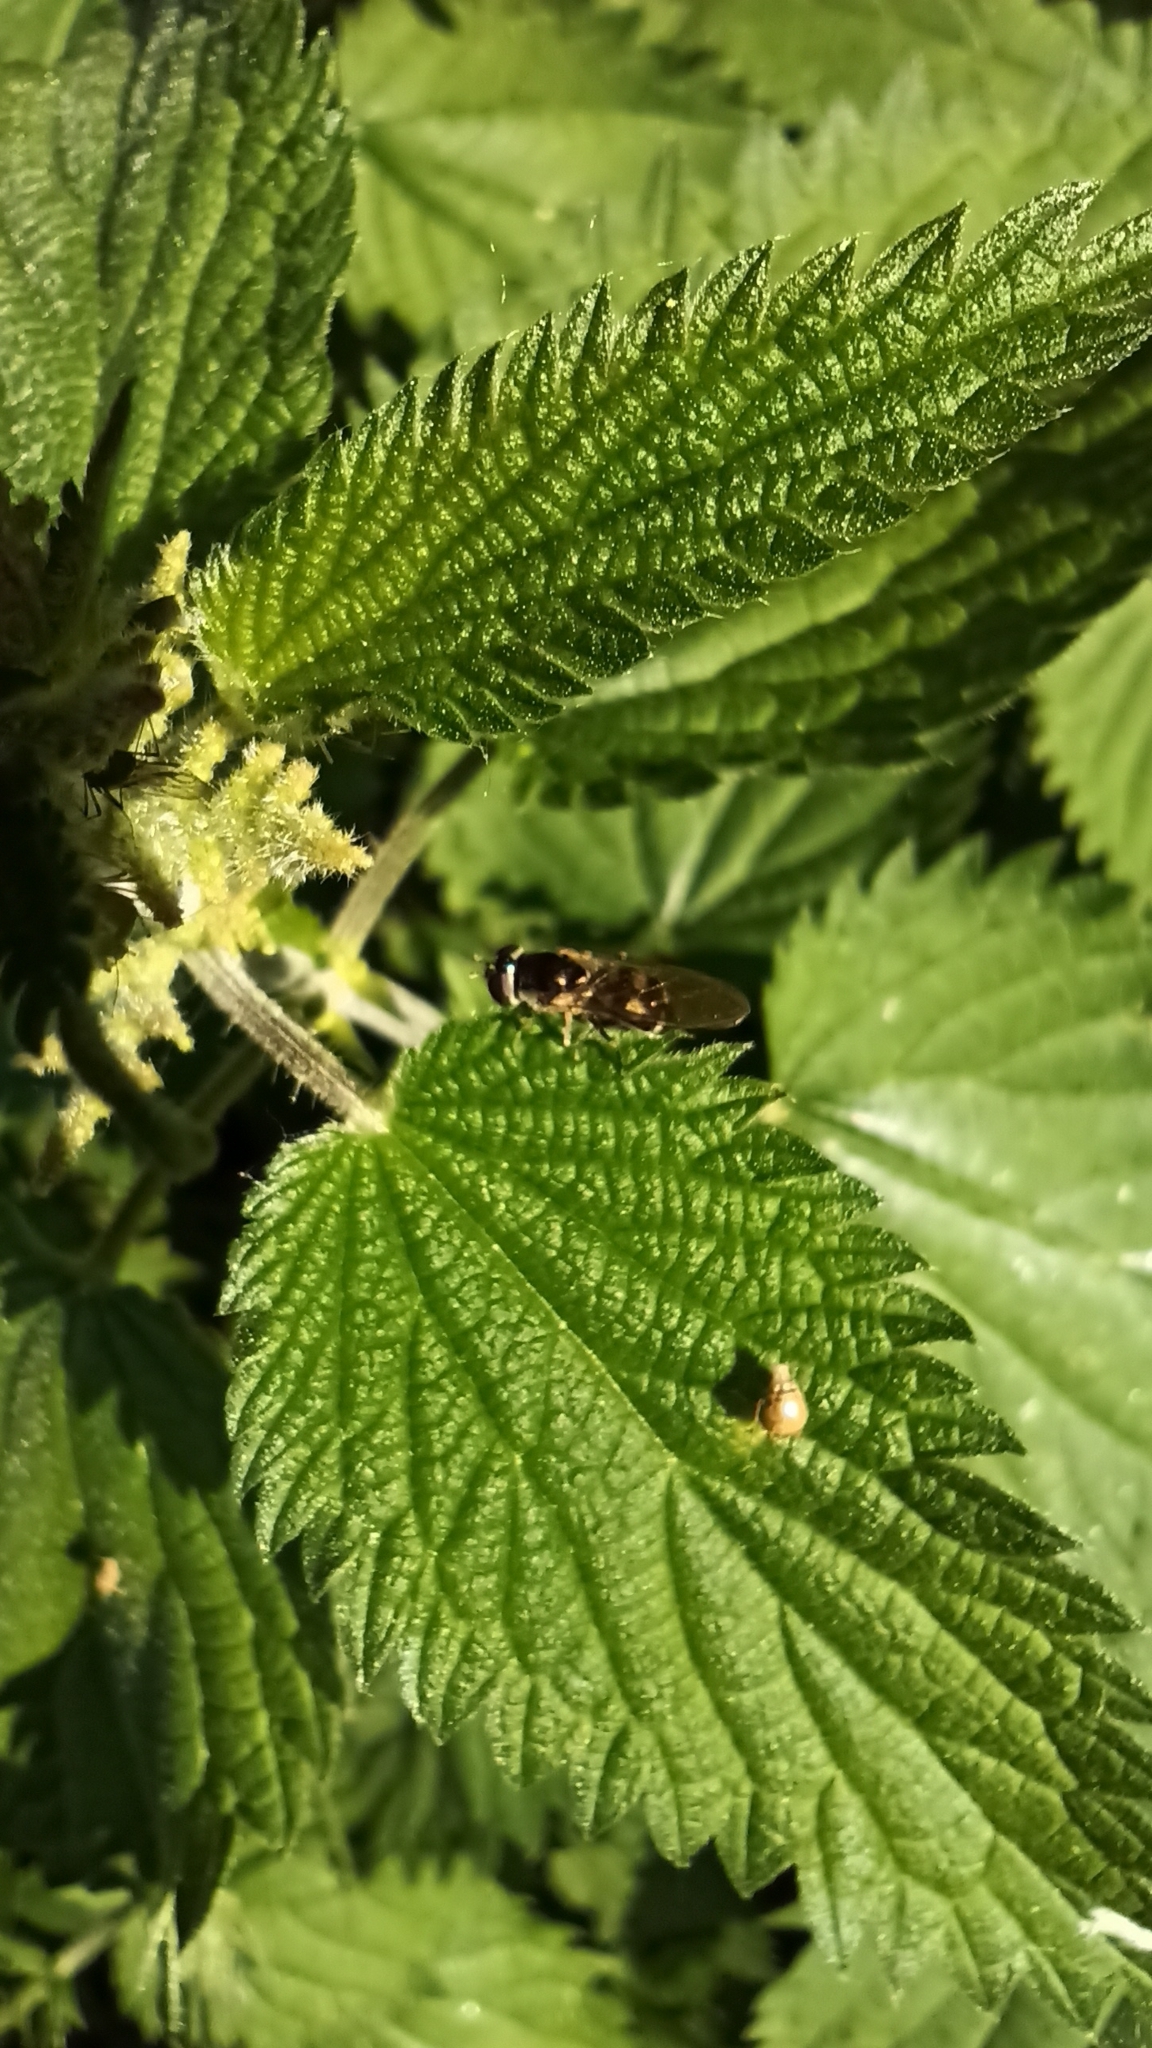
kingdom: Animalia
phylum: Arthropoda
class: Insecta
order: Diptera
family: Syrphidae
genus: Xanthandrus
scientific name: Xanthandrus comtus
